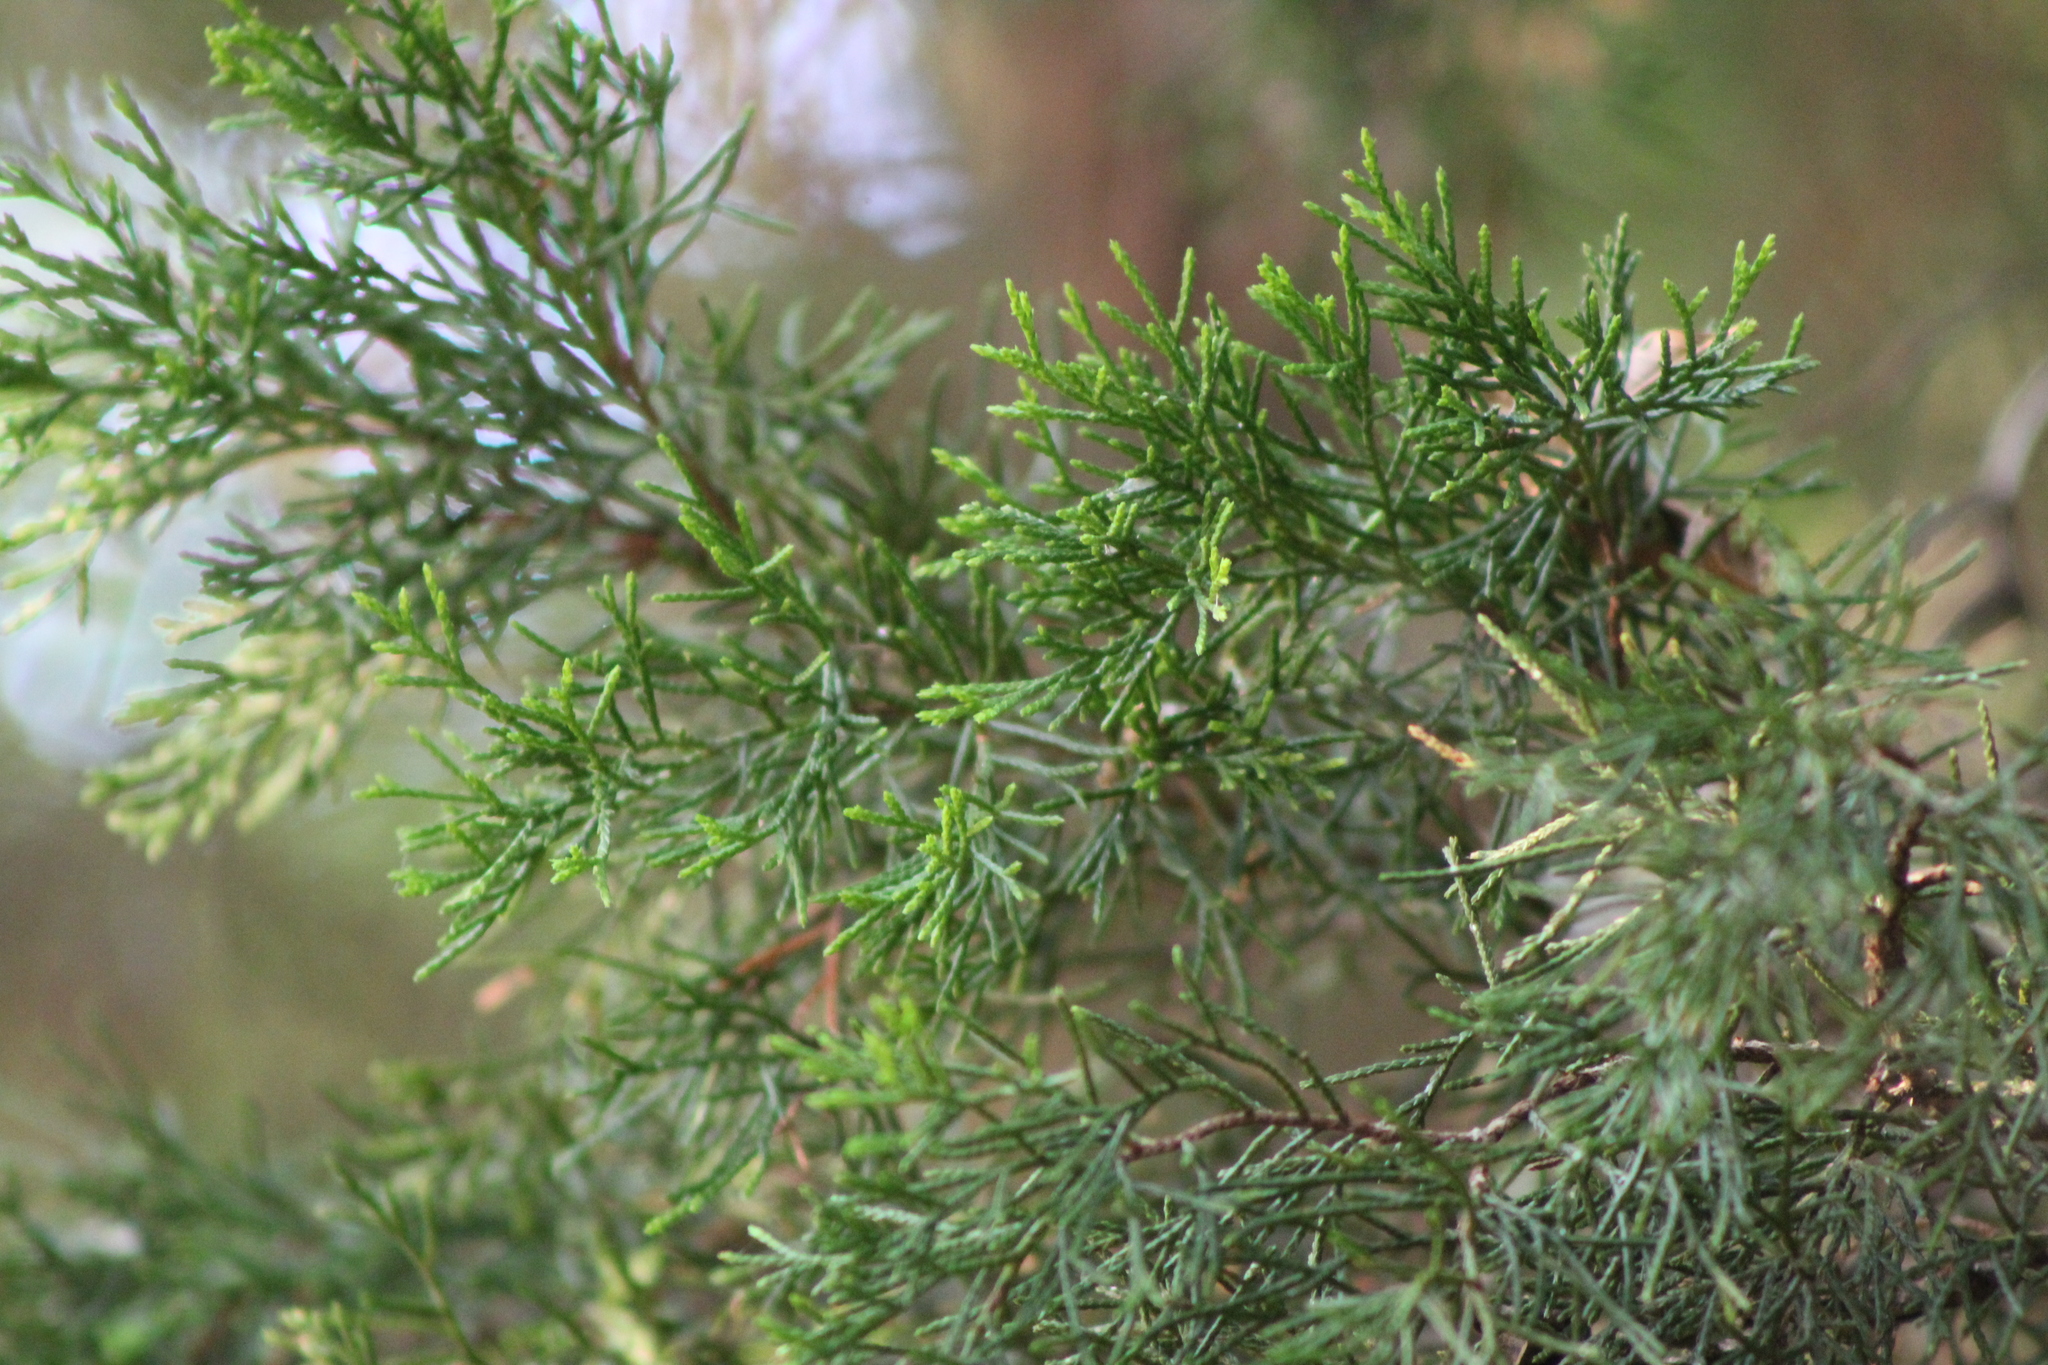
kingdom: Plantae
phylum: Tracheophyta
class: Pinopsida
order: Pinales
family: Cupressaceae
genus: Juniperus
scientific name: Juniperus virginiana
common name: Red juniper
